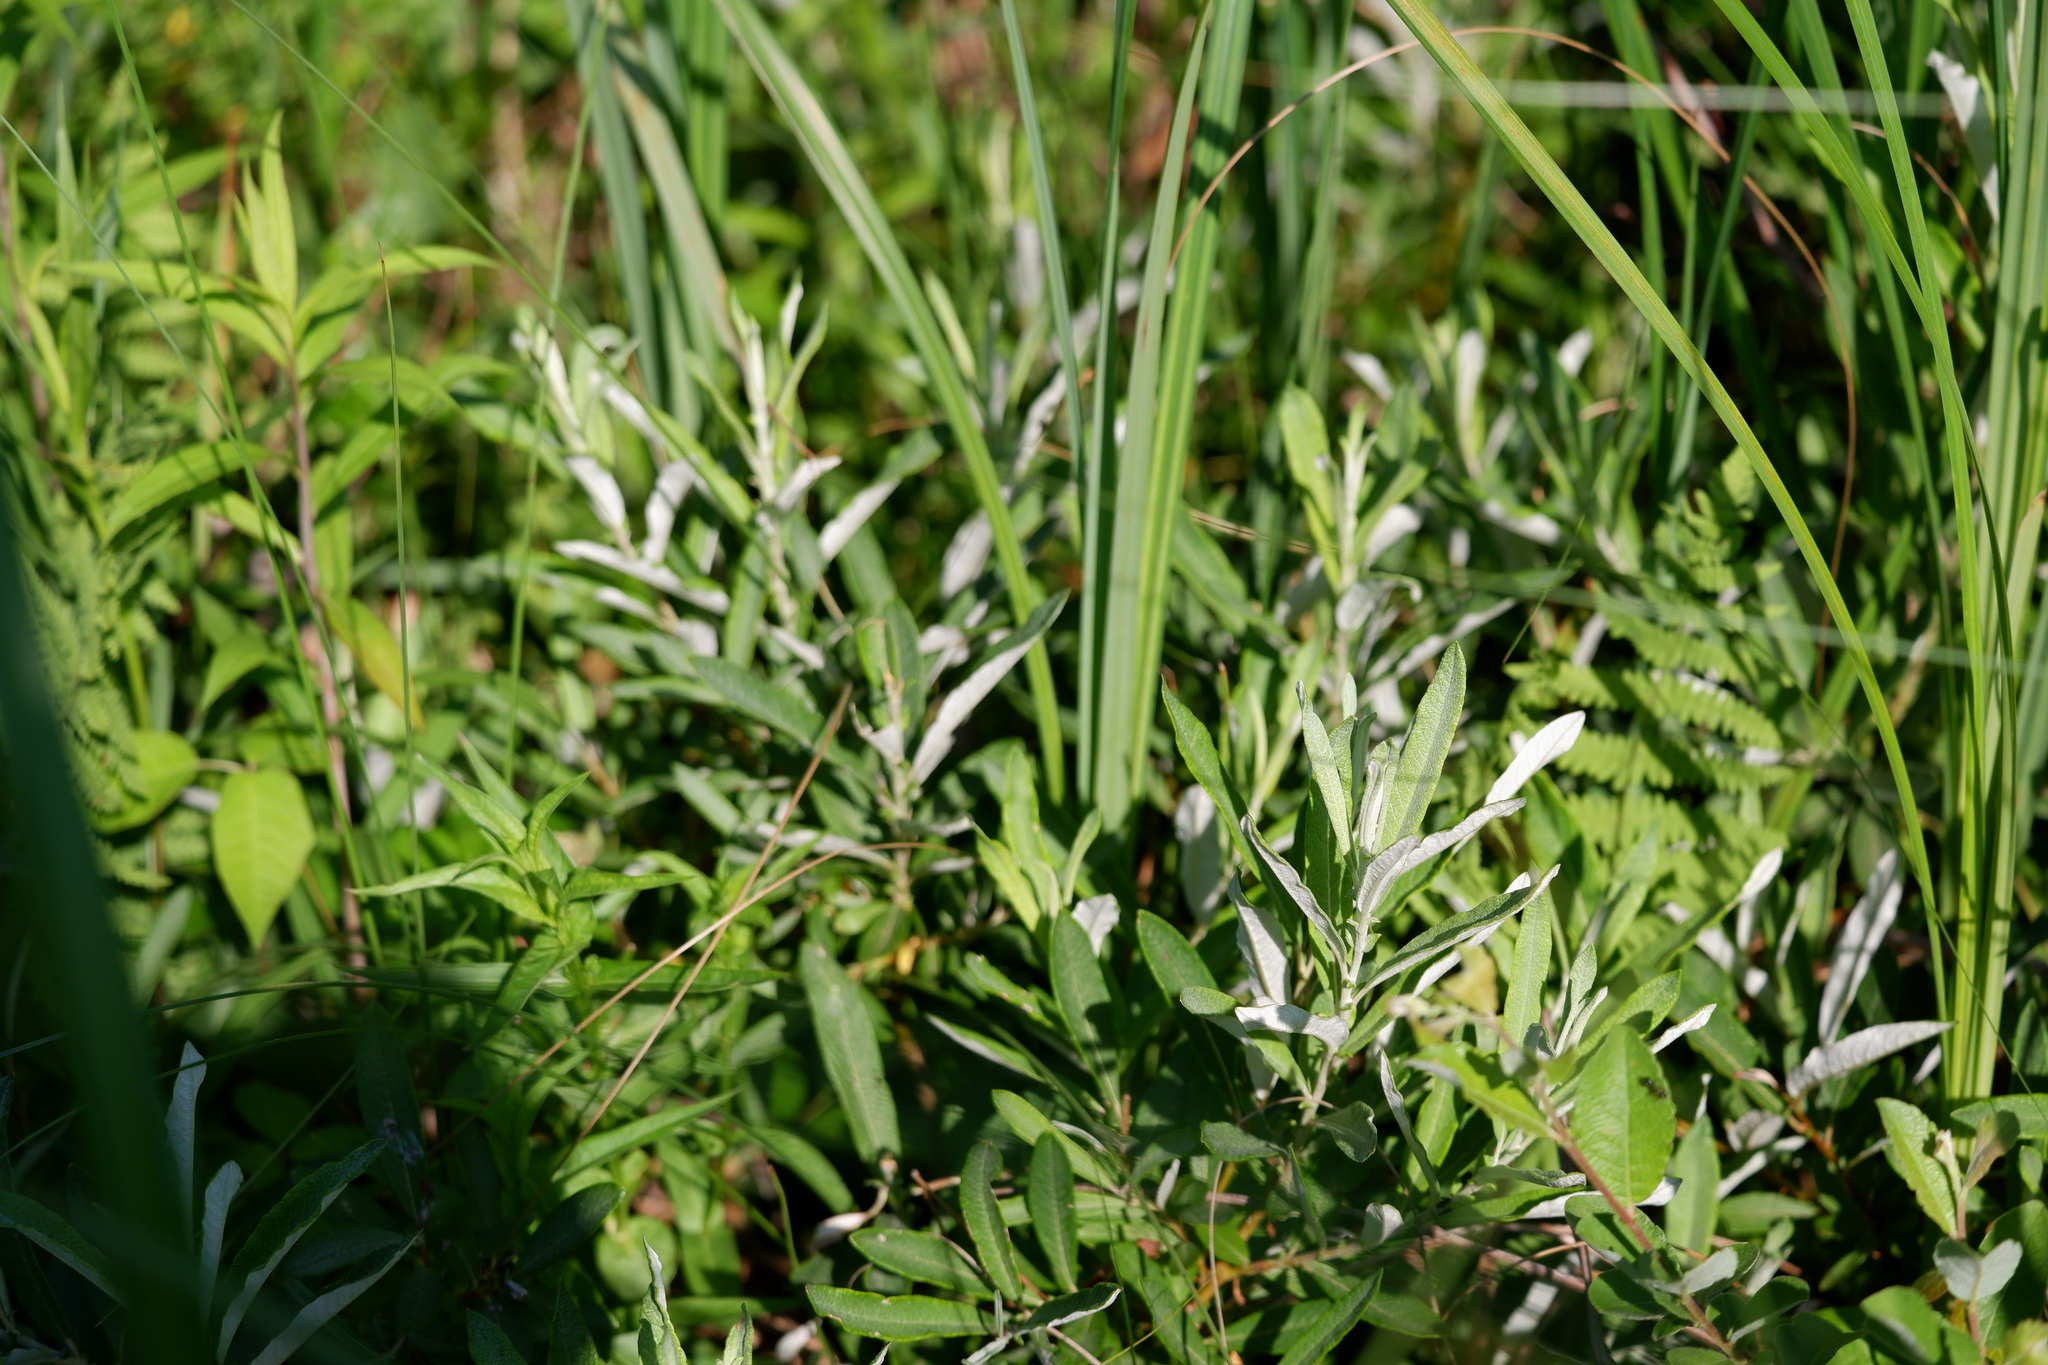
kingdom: Plantae
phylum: Tracheophyta
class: Magnoliopsida
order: Malpighiales
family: Salicaceae
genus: Salix
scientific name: Salix candida
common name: Hoary willow
